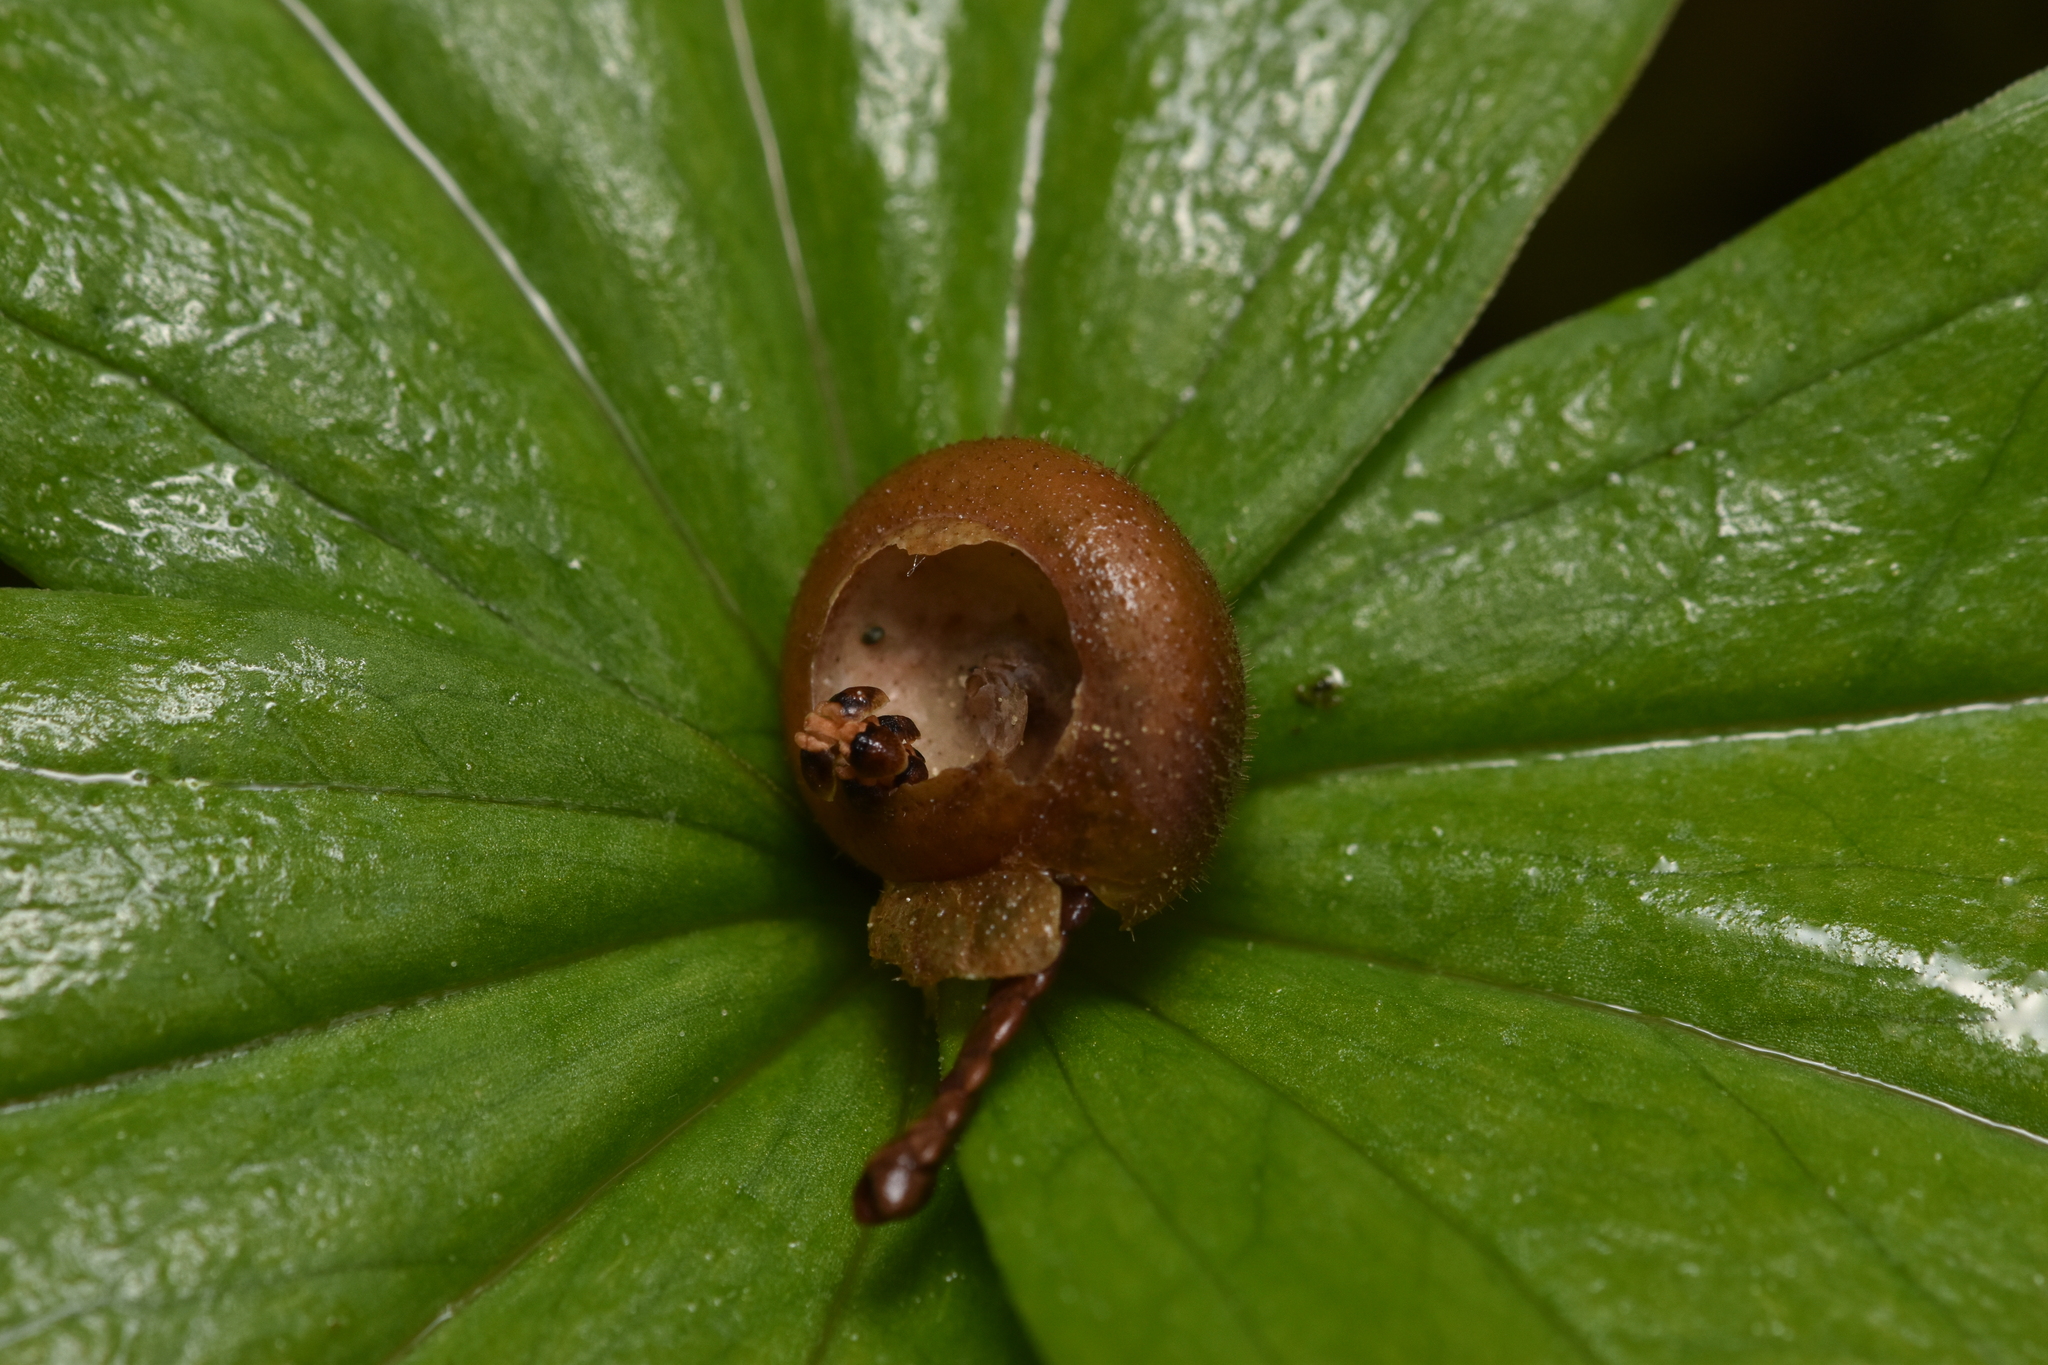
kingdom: Animalia
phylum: Mollusca
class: Gastropoda
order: Stylommatophora
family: Polygyridae
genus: Vespericola
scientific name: Vespericola columbianus
